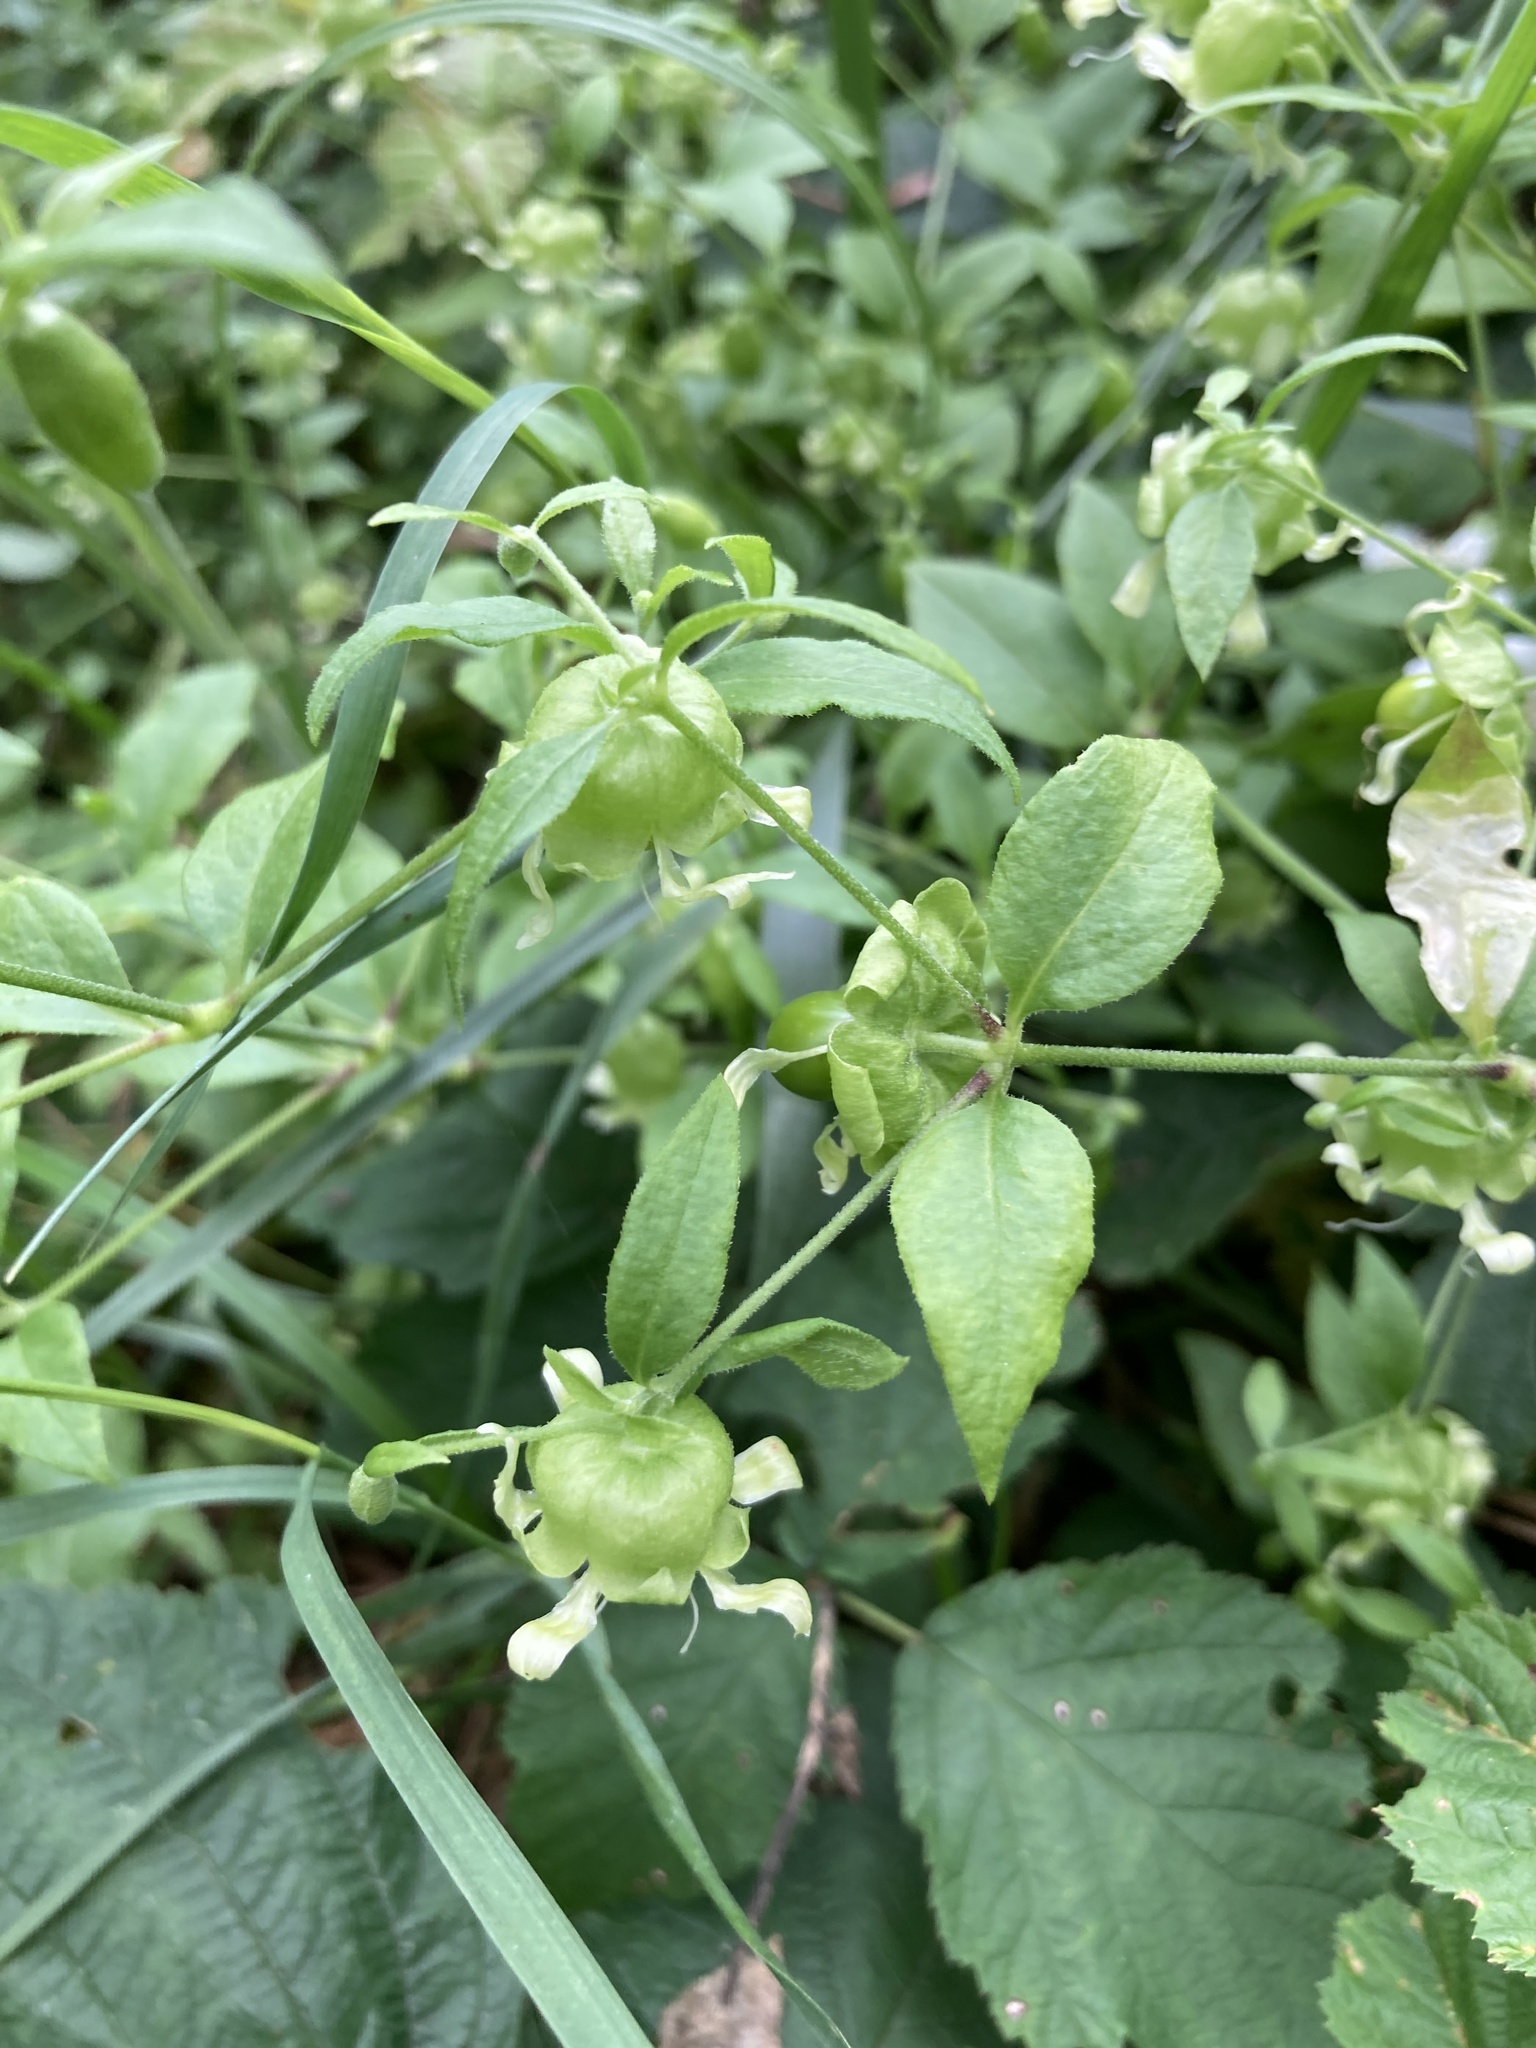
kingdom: Plantae
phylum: Tracheophyta
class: Magnoliopsida
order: Caryophyllales
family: Caryophyllaceae
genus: Silene
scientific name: Silene baccifera
